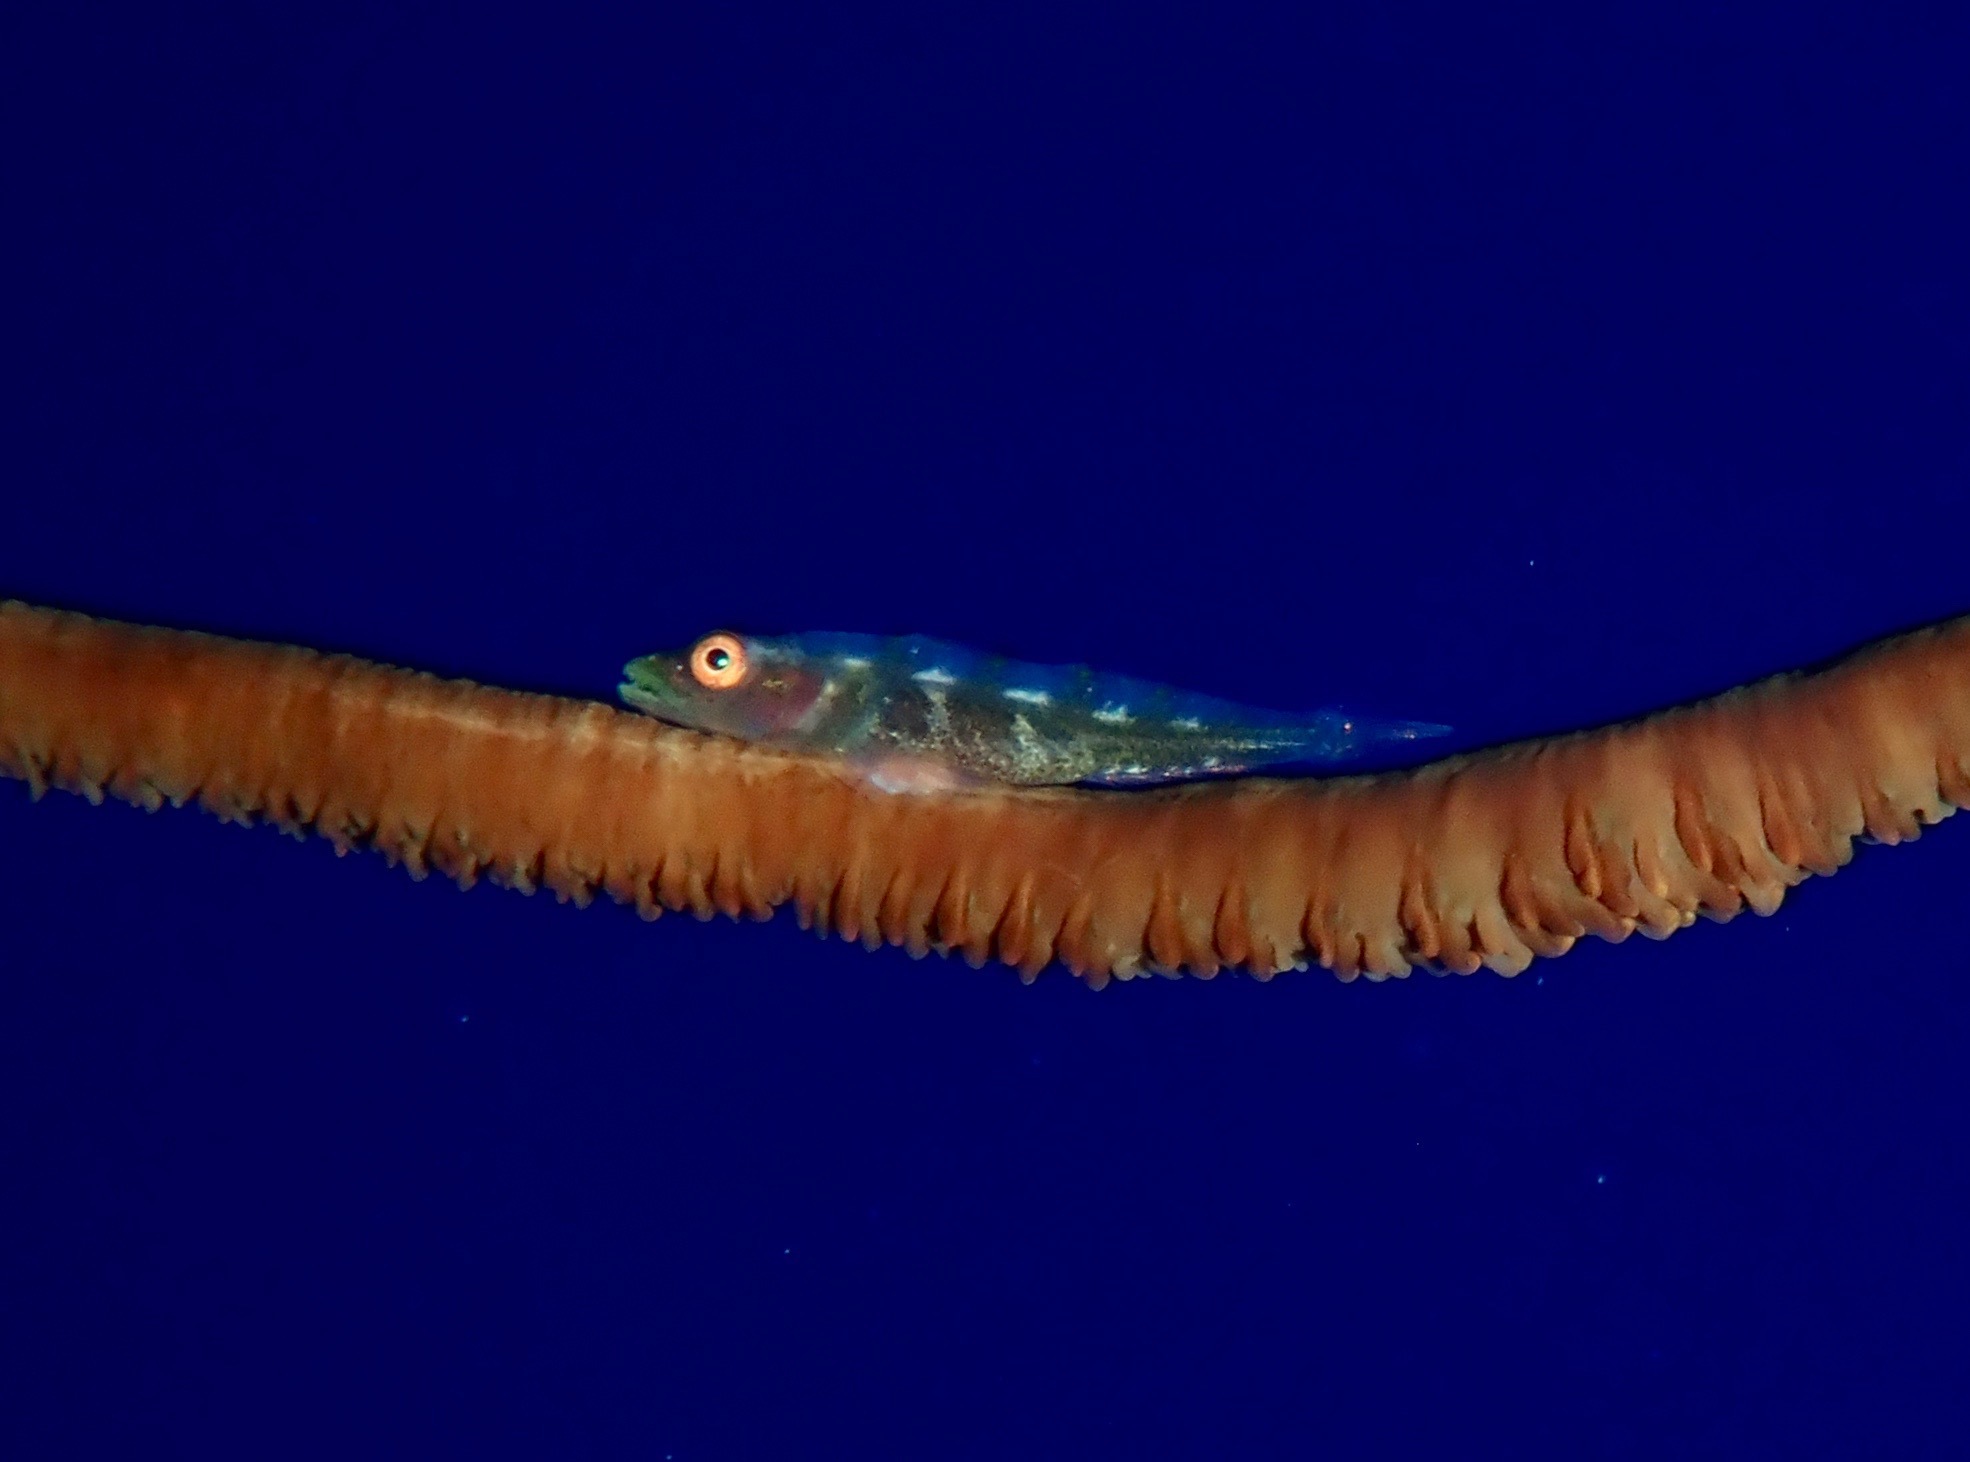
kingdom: Animalia
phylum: Chordata
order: Perciformes
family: Gobiidae
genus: Bryaninops
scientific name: Bryaninops yongei
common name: Whip coral goby
